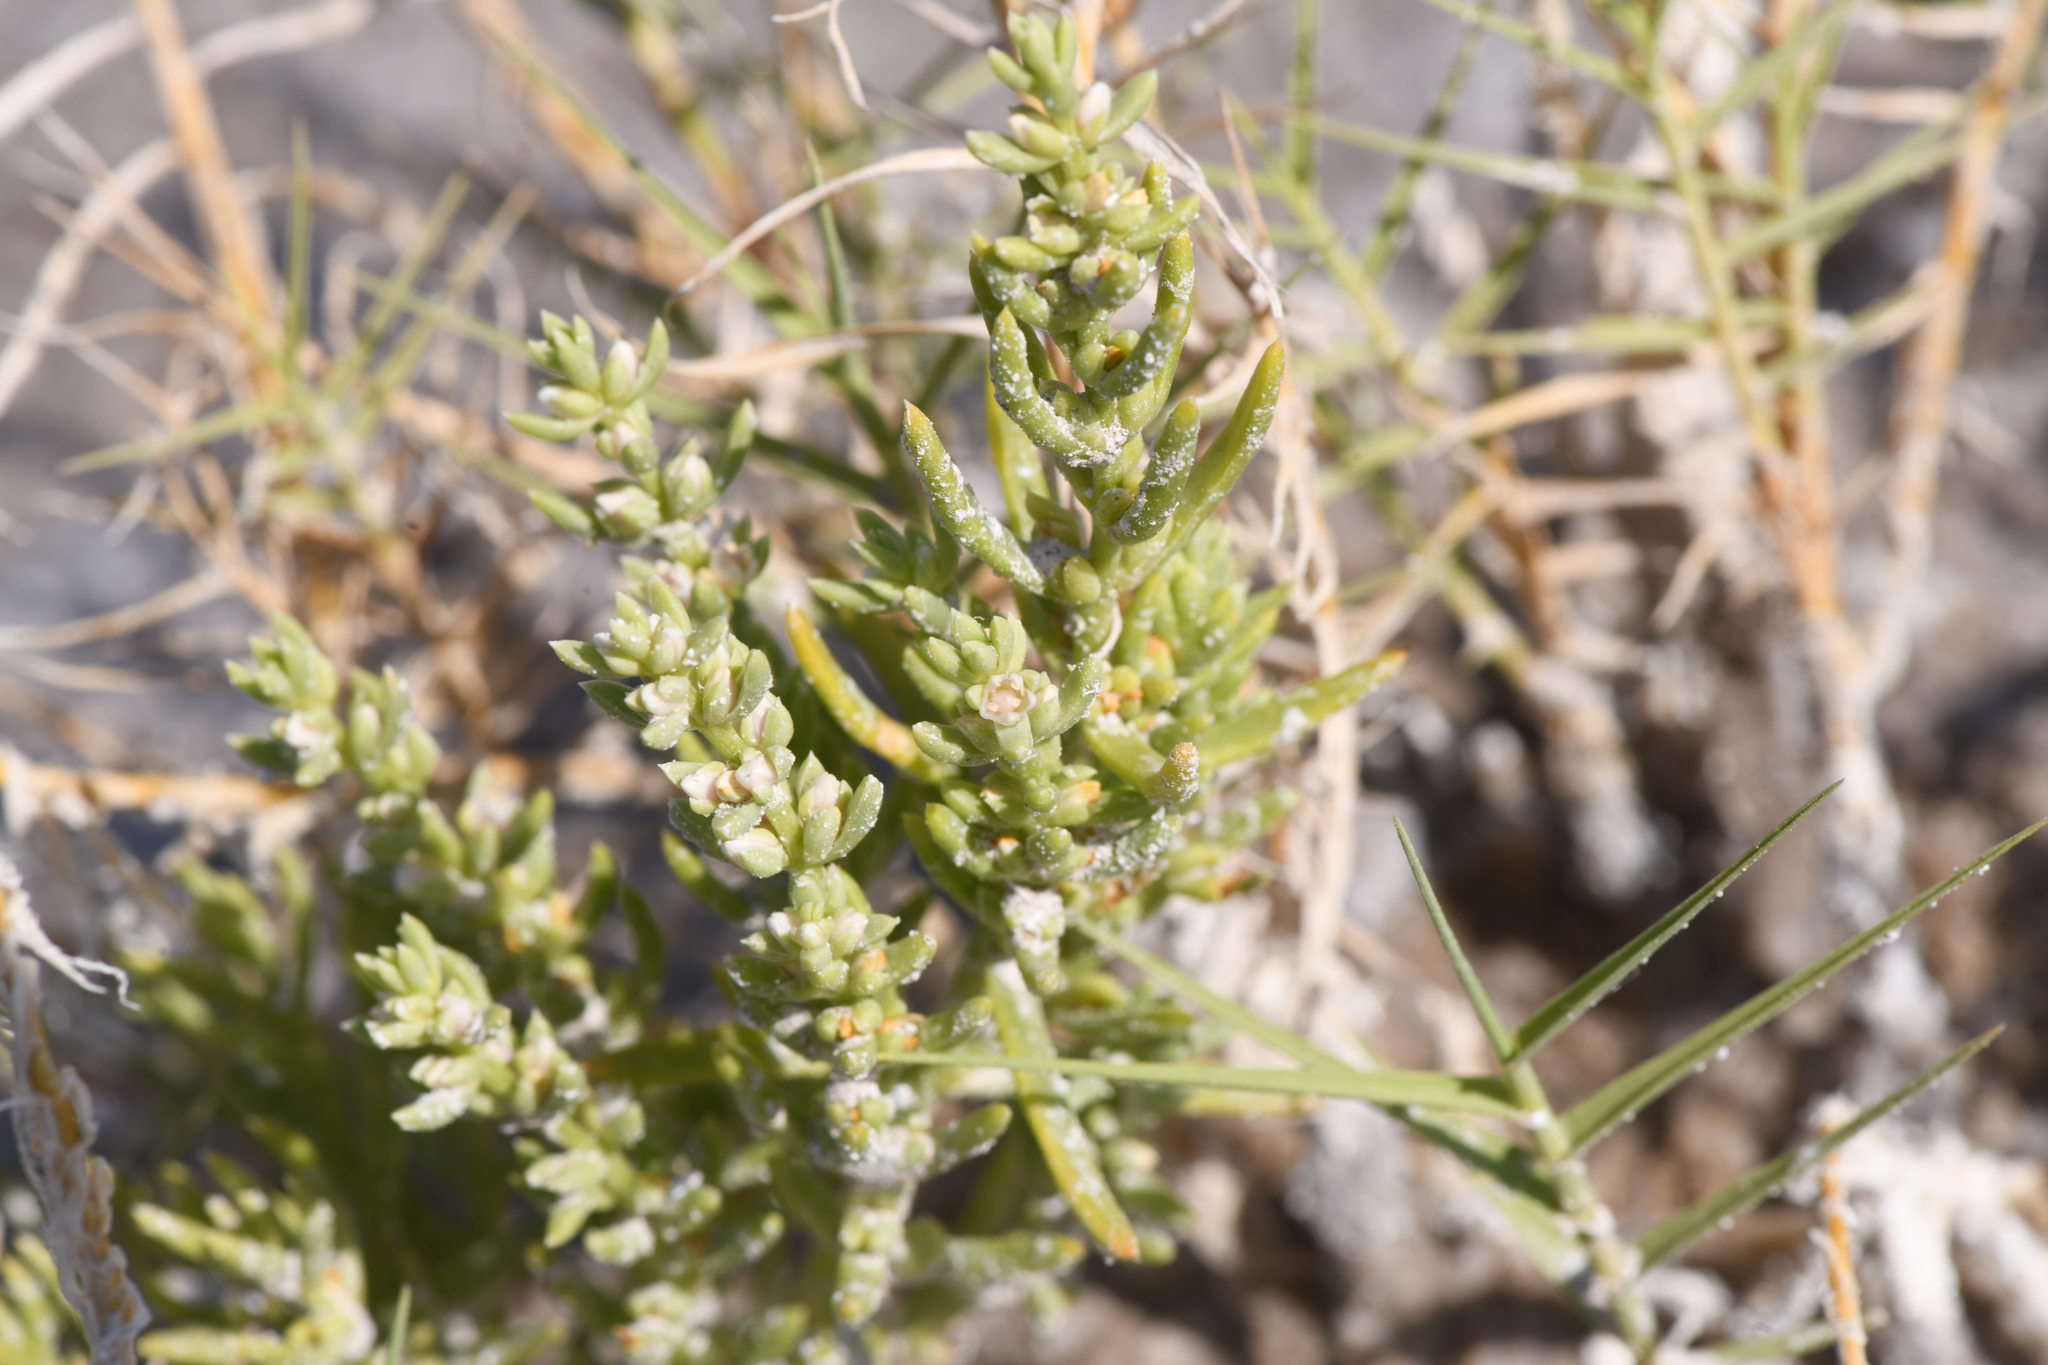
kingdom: Plantae
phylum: Tracheophyta
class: Magnoliopsida
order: Caryophyllales
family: Amaranthaceae
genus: Nitrophila
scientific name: Nitrophila occidentalis
